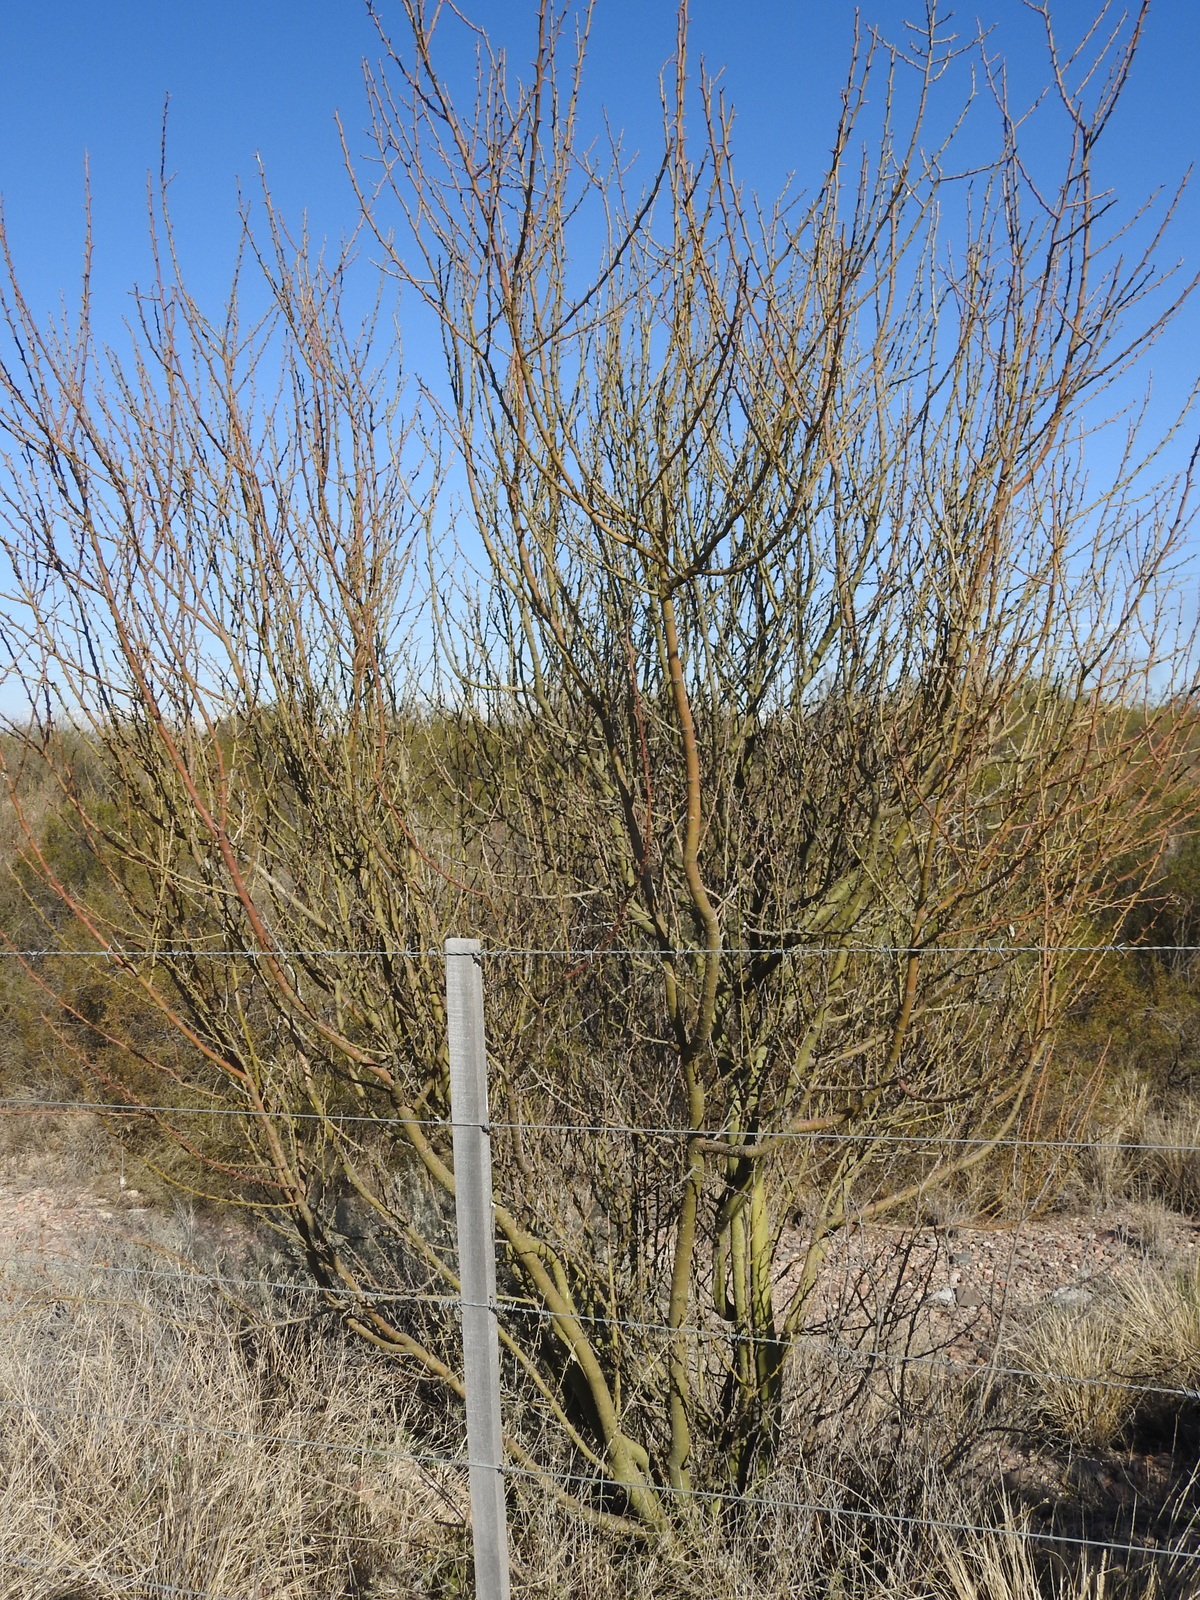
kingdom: Plantae
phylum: Tracheophyta
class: Magnoliopsida
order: Fabales
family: Fabaceae
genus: Parkinsonia
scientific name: Parkinsonia praecox
